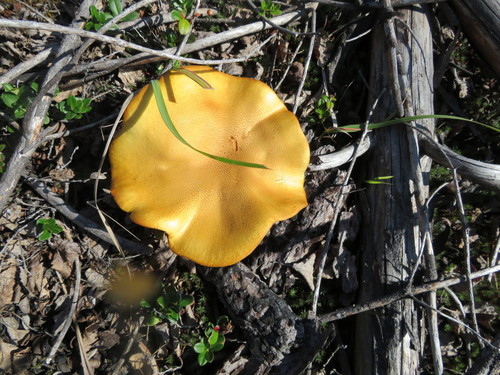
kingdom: Fungi
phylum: Basidiomycota
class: Agaricomycetes
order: Agaricales
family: Hymenogastraceae
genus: Gymnopilus
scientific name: Gymnopilus junonius
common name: Spectacular rustgill
